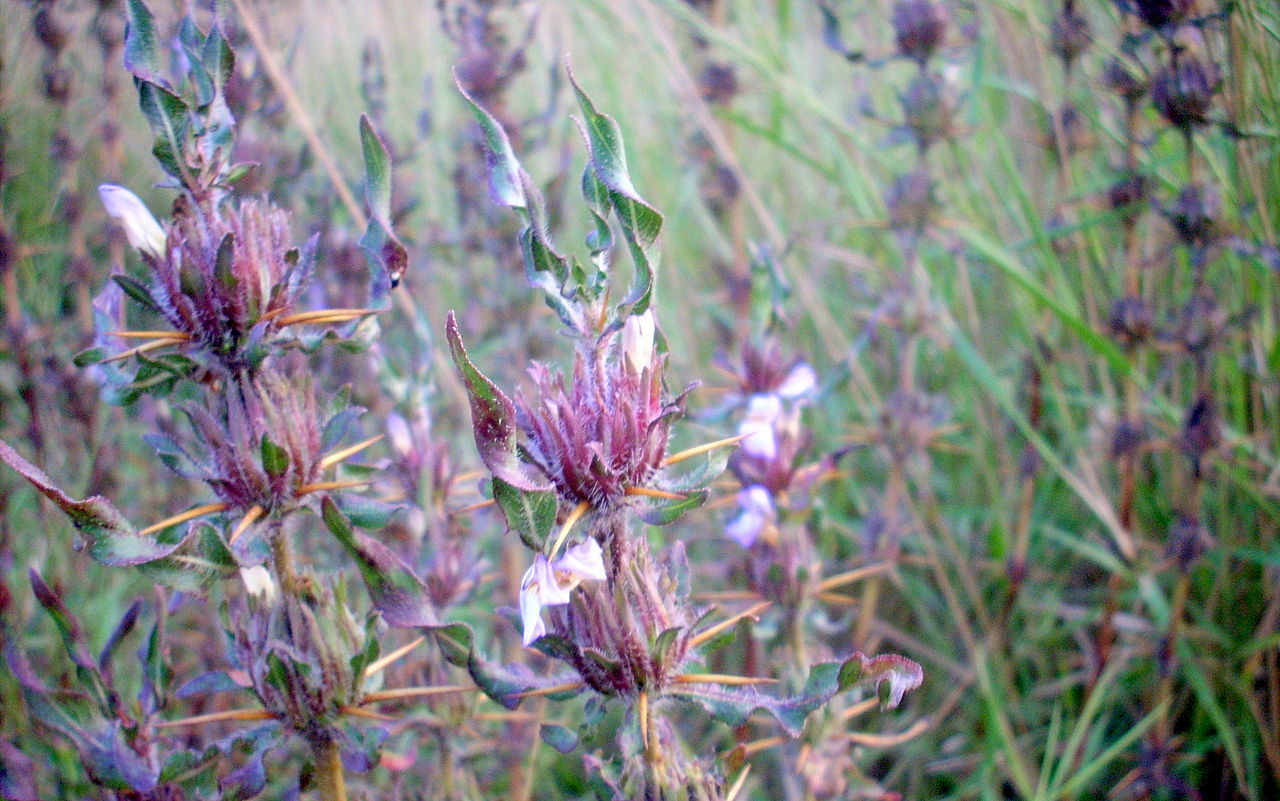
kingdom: Plantae
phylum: Tracheophyta
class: Magnoliopsida
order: Lamiales
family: Acanthaceae
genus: Hygrophila
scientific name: Hygrophila auriculata
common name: Hygrophila
